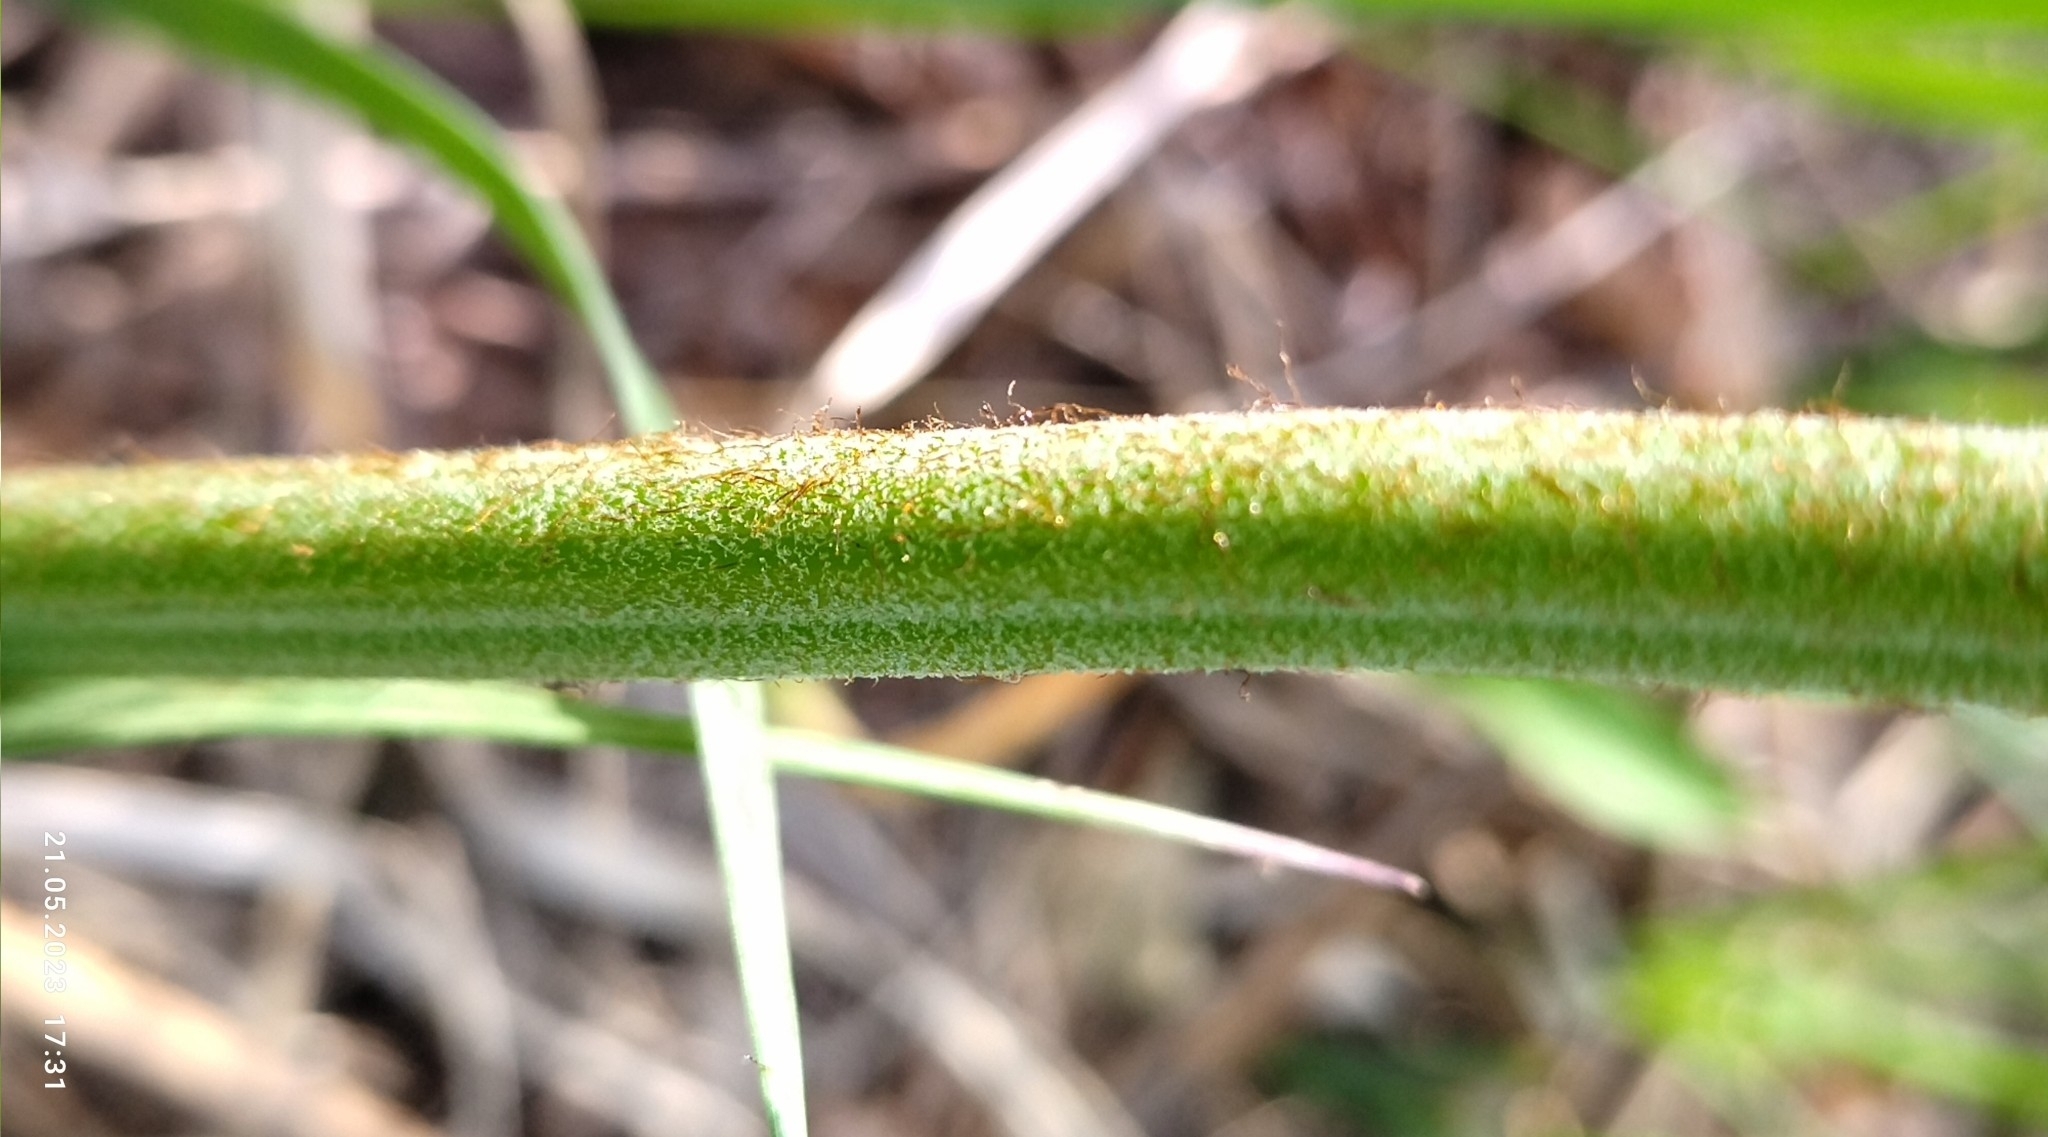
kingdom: Plantae
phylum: Tracheophyta
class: Polypodiopsida
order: Polypodiales
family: Dennstaedtiaceae
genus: Pteridium
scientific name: Pteridium aquilinum
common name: Bracken
